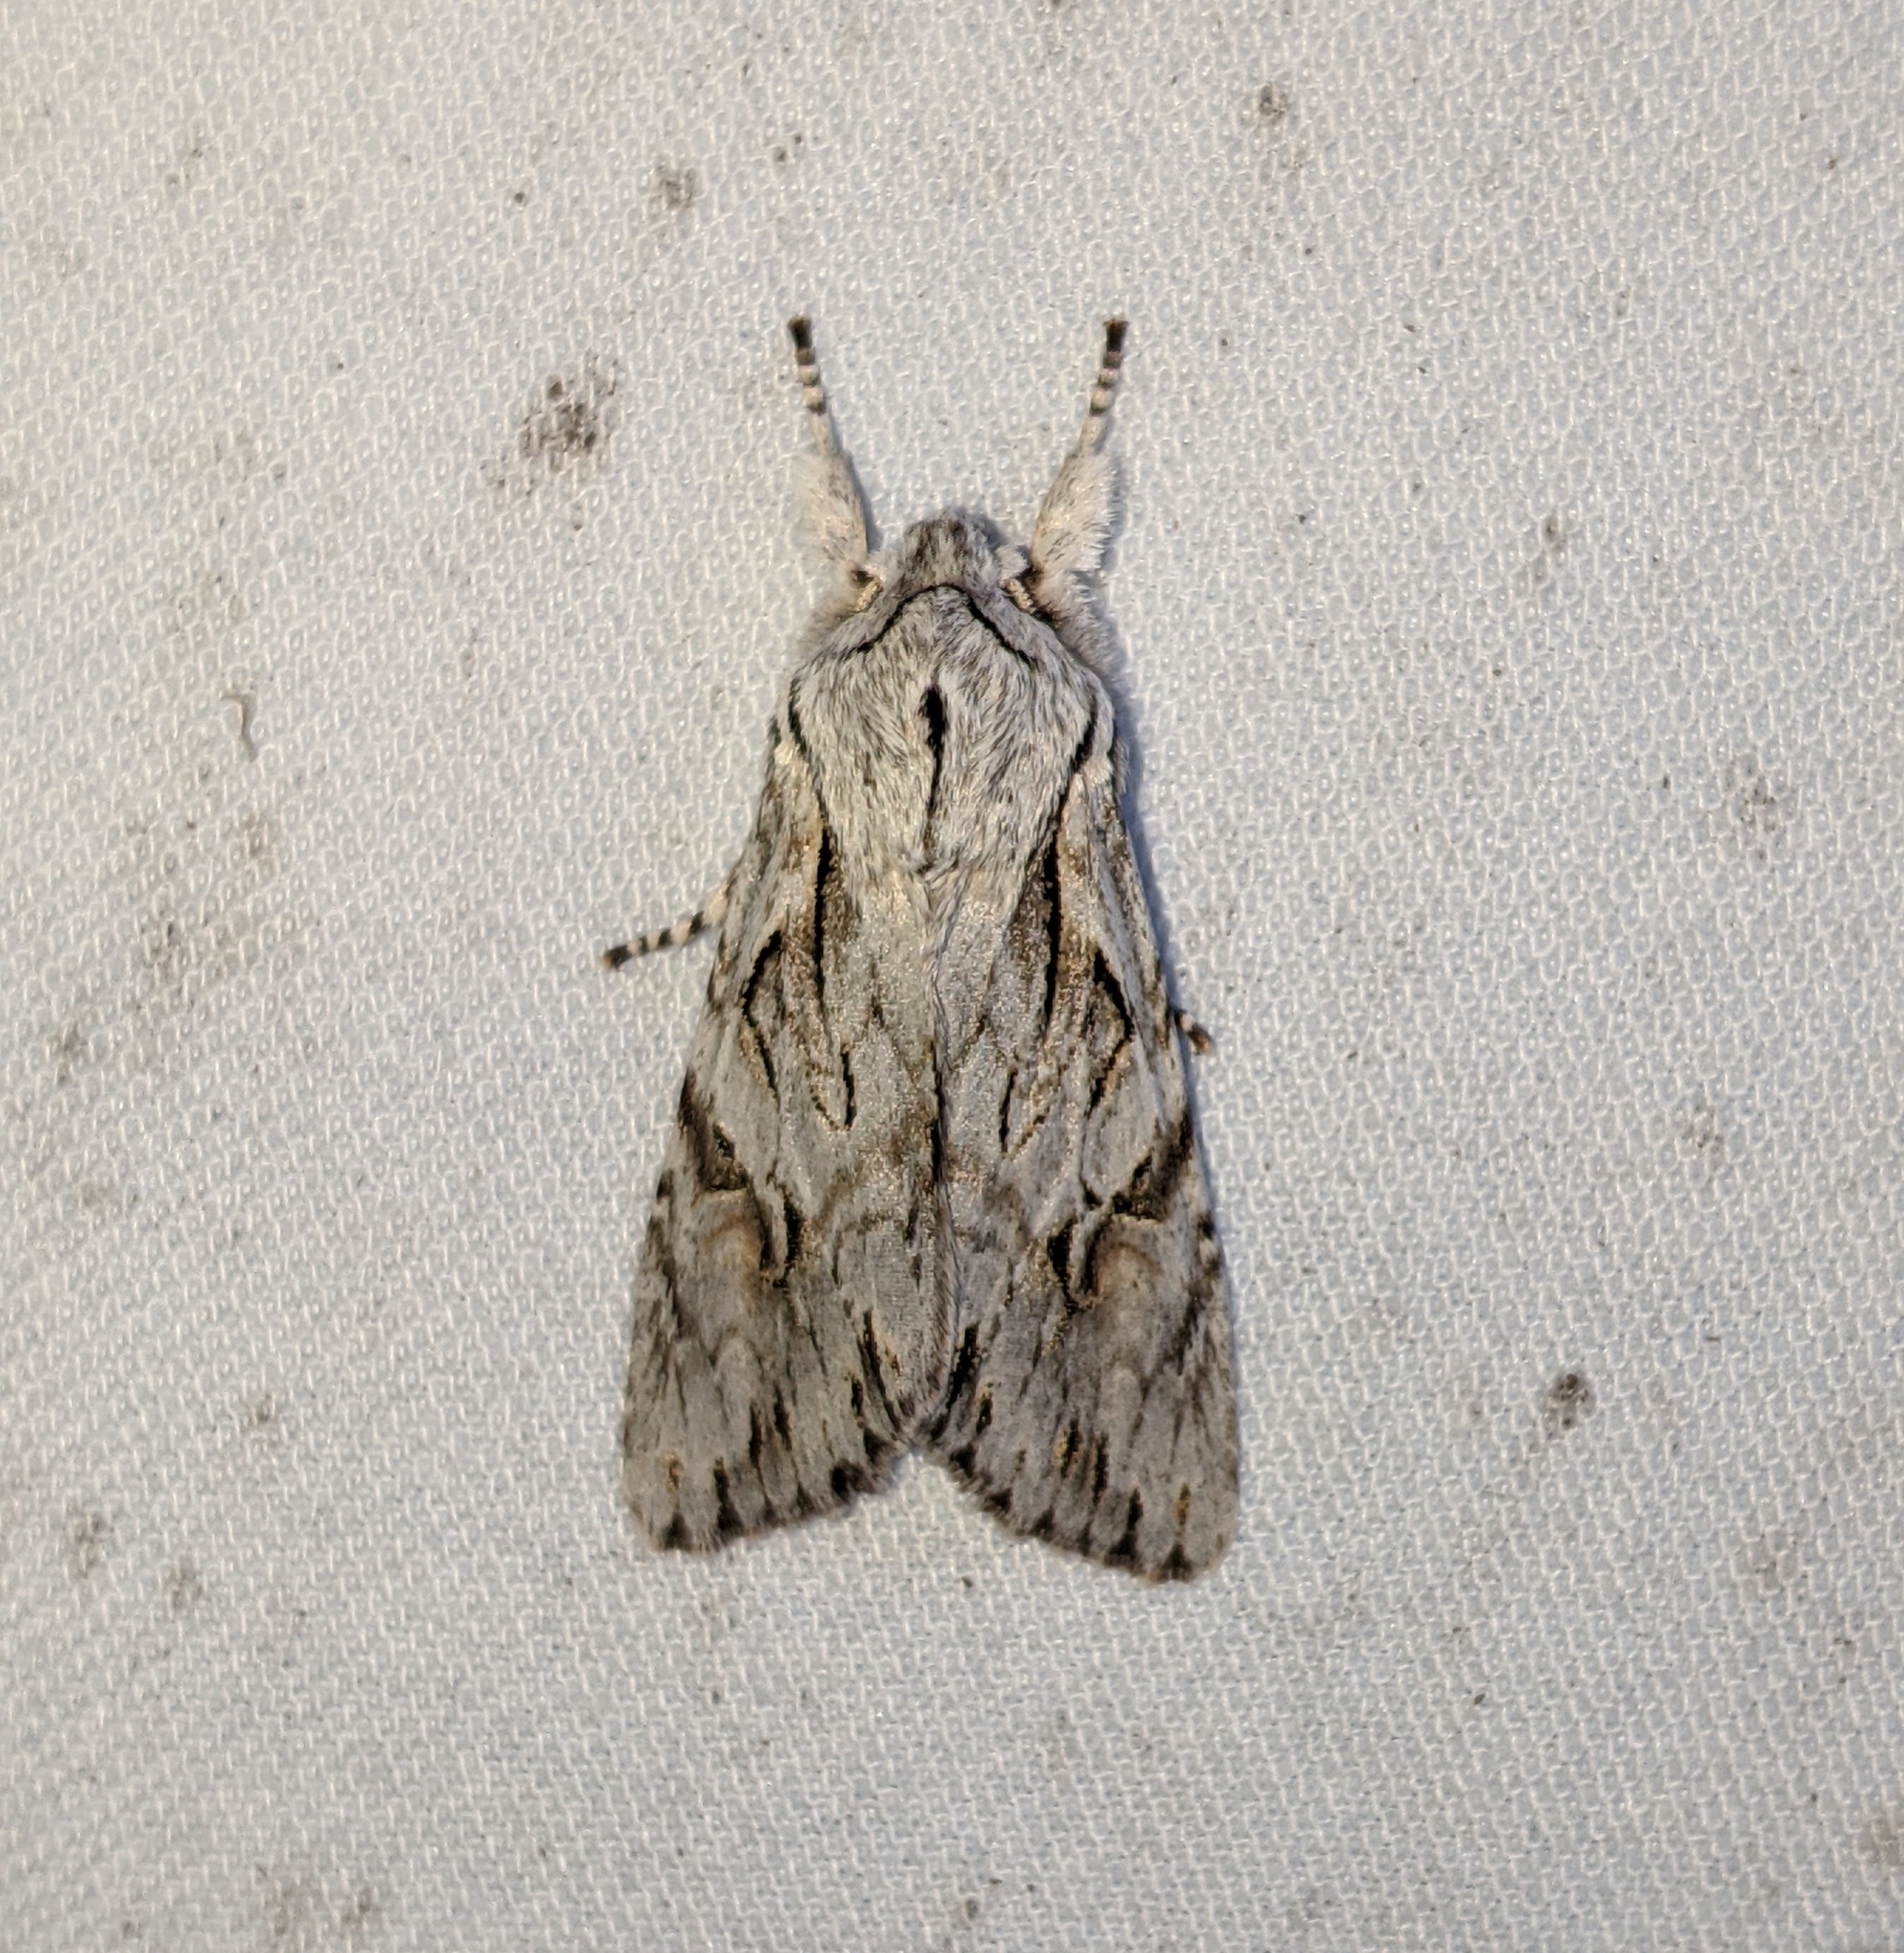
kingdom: Animalia
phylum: Arthropoda
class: Insecta
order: Lepidoptera
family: Noctuidae
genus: Egira
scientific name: Egira crucialis
